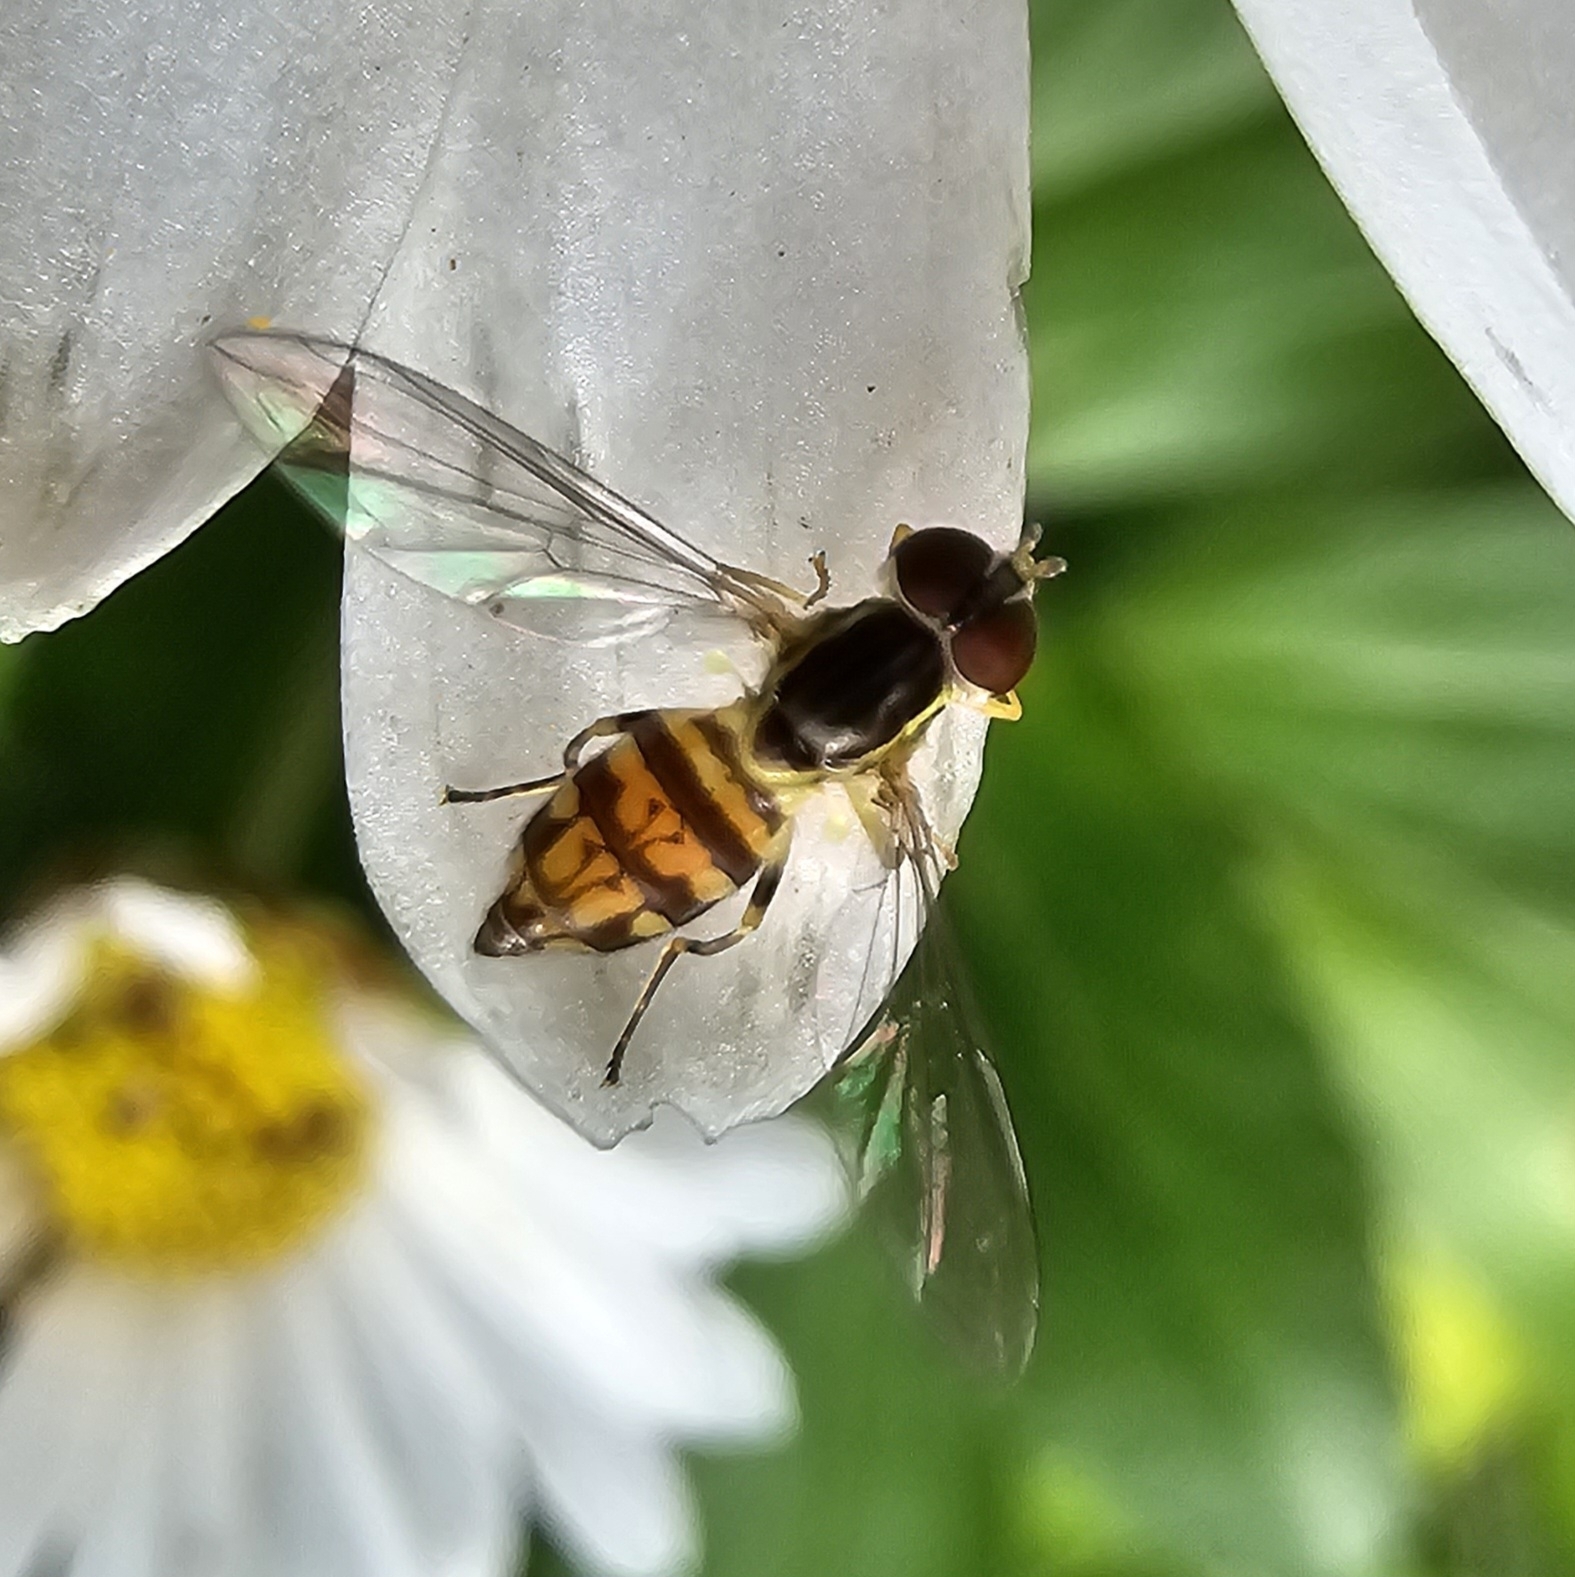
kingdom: Animalia
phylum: Arthropoda
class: Insecta
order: Diptera
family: Syrphidae
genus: Toxomerus
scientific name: Toxomerus geminatus
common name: Eastern calligrapher
